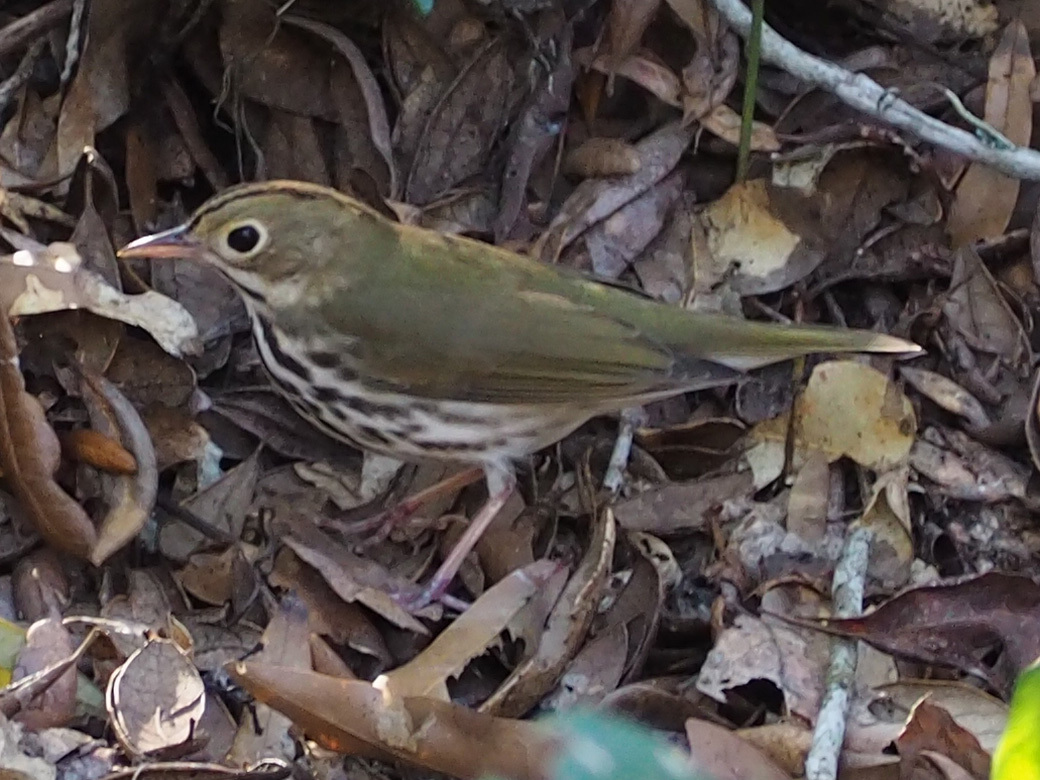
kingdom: Animalia
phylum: Chordata
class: Aves
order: Passeriformes
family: Parulidae
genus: Seiurus
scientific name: Seiurus aurocapilla
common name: Ovenbird
